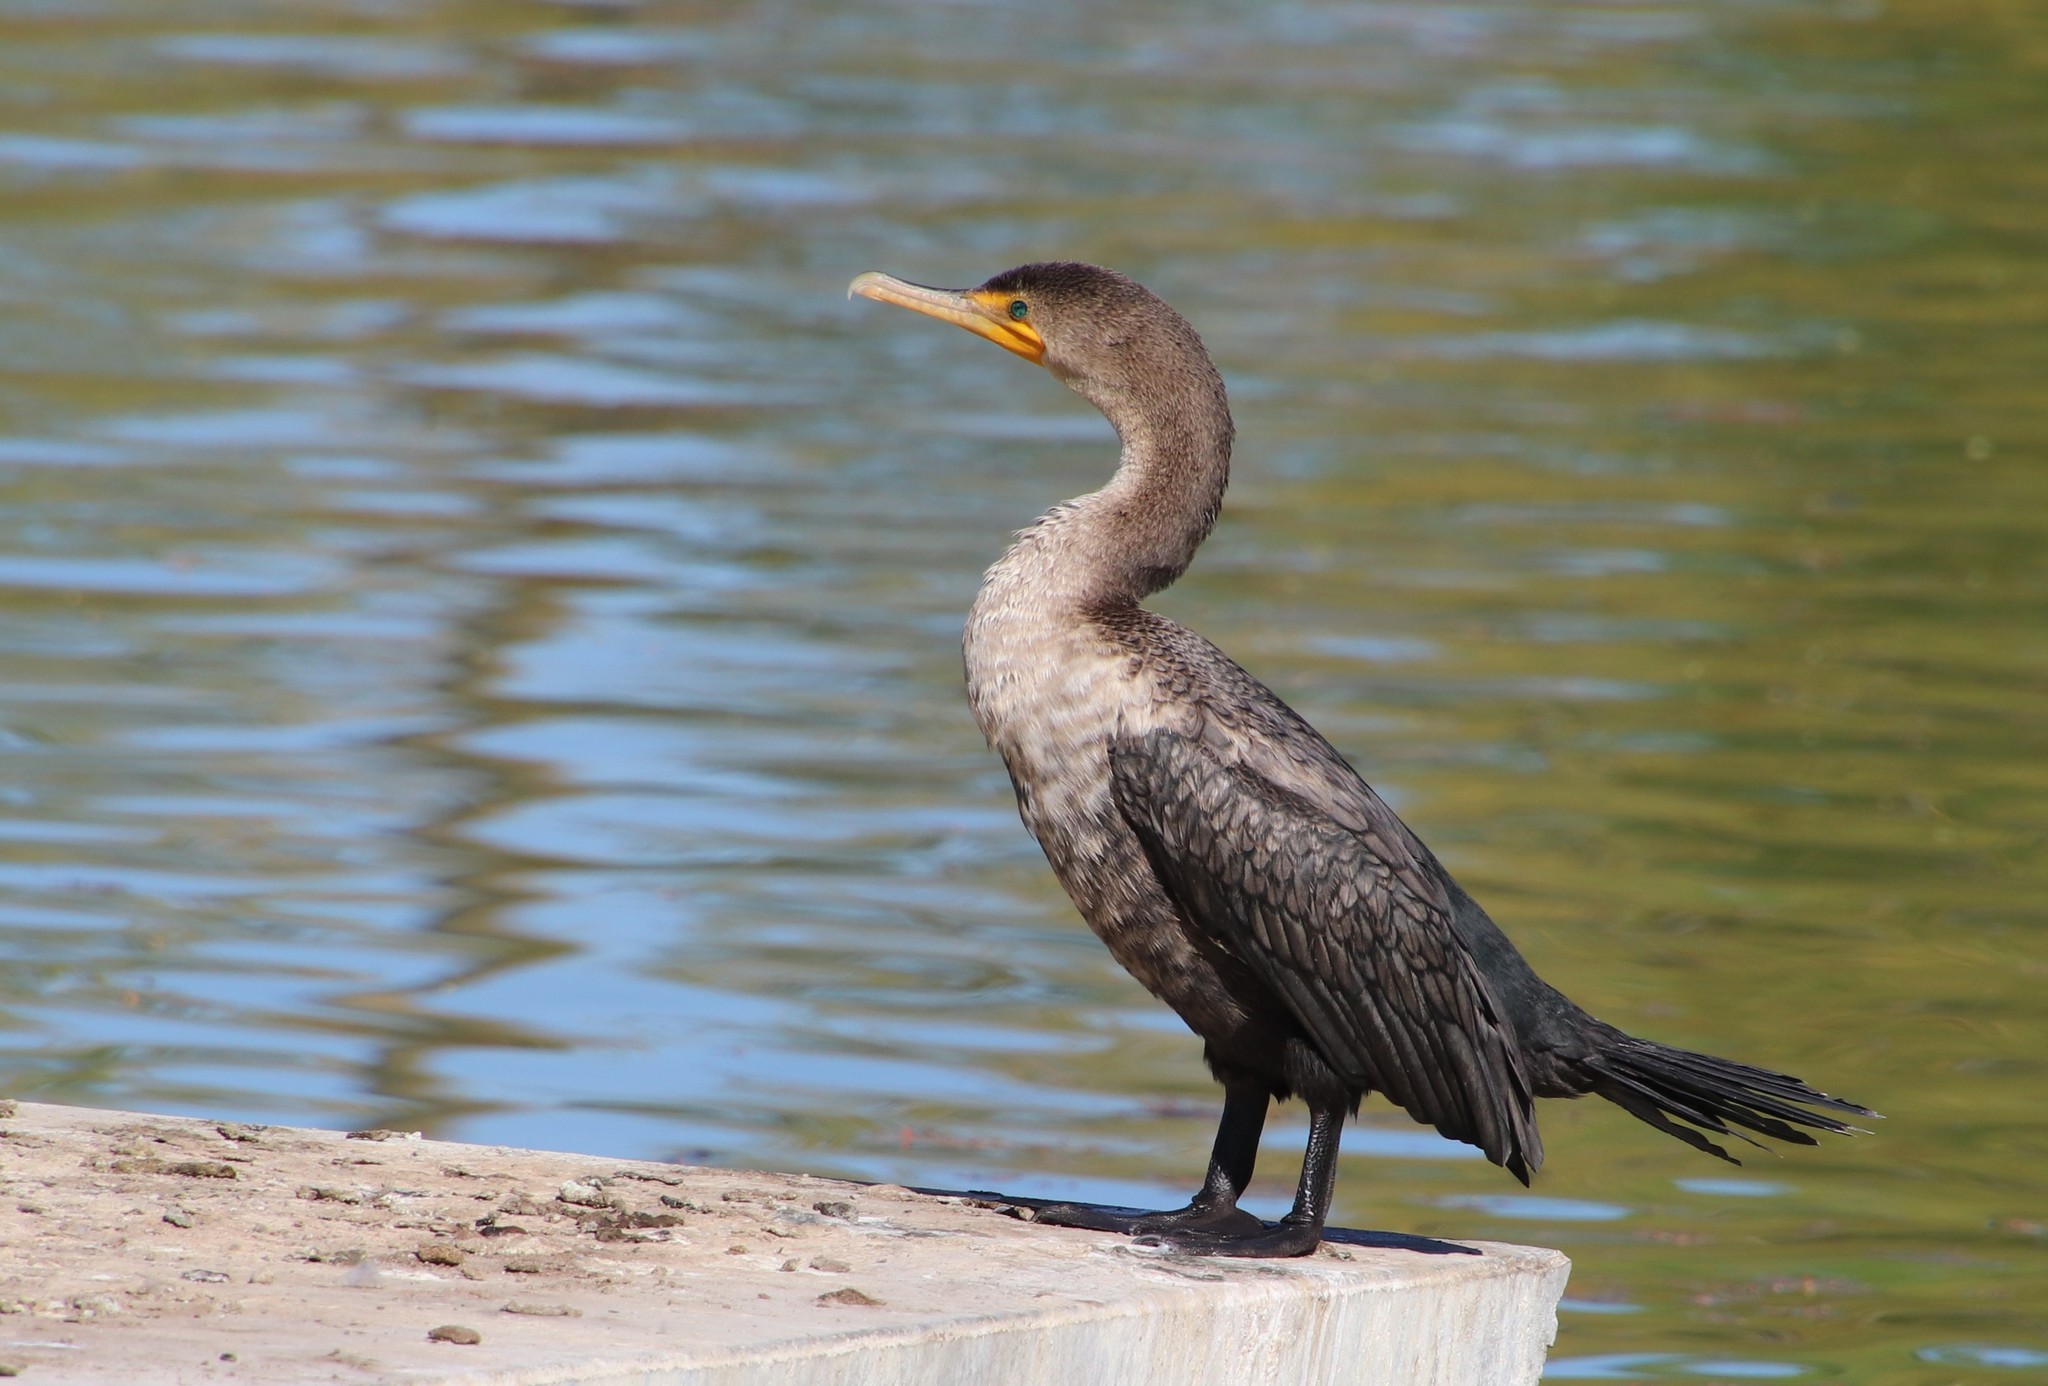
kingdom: Animalia
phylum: Chordata
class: Aves
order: Suliformes
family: Phalacrocoracidae
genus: Phalacrocorax
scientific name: Phalacrocorax auritus
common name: Double-crested cormorant
